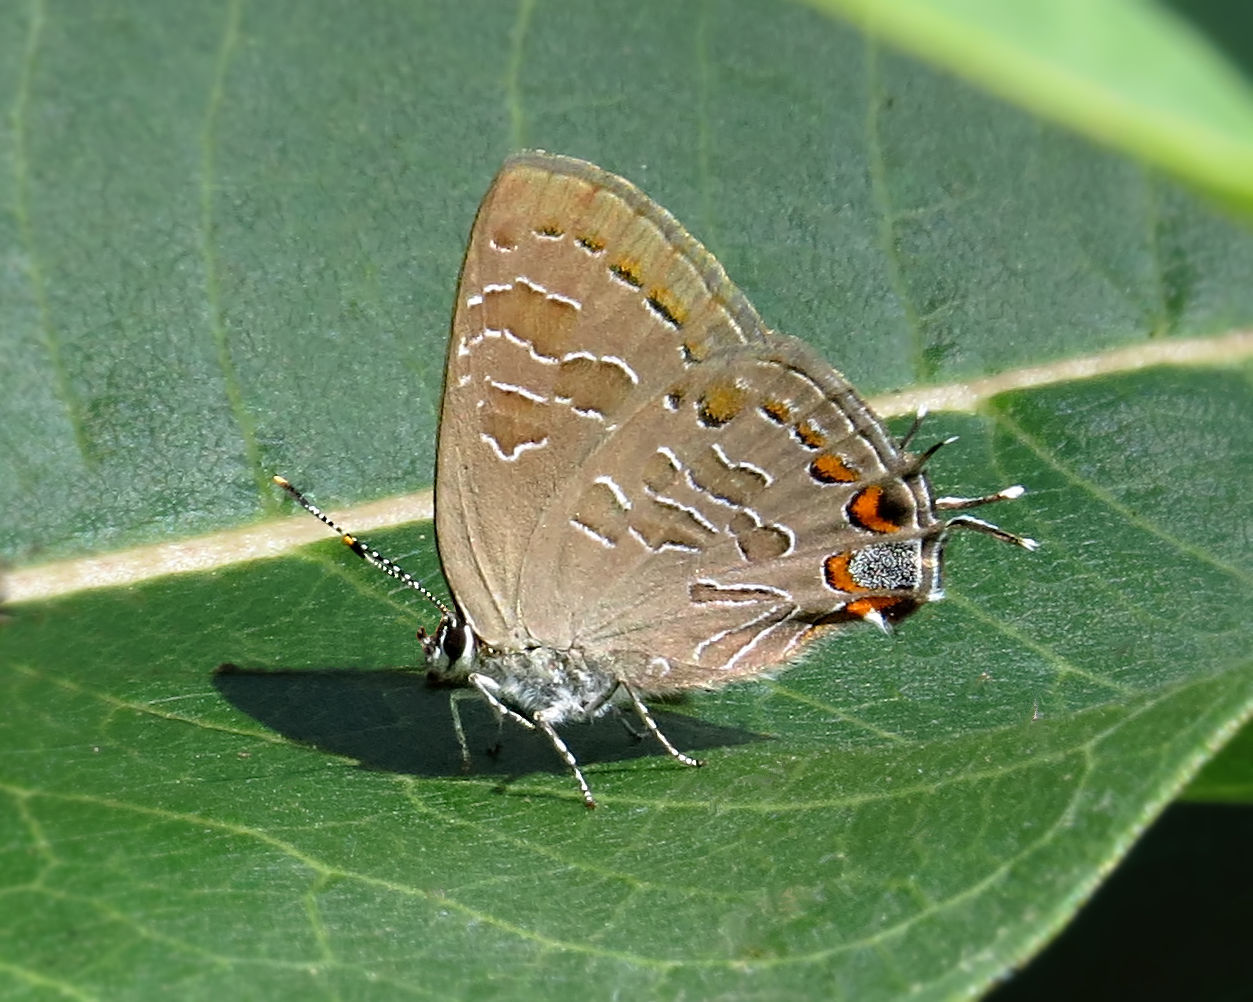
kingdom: Animalia
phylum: Arthropoda
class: Insecta
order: Lepidoptera
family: Lycaenidae
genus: Satyrium
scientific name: Satyrium liparops
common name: Striped hairstreak
